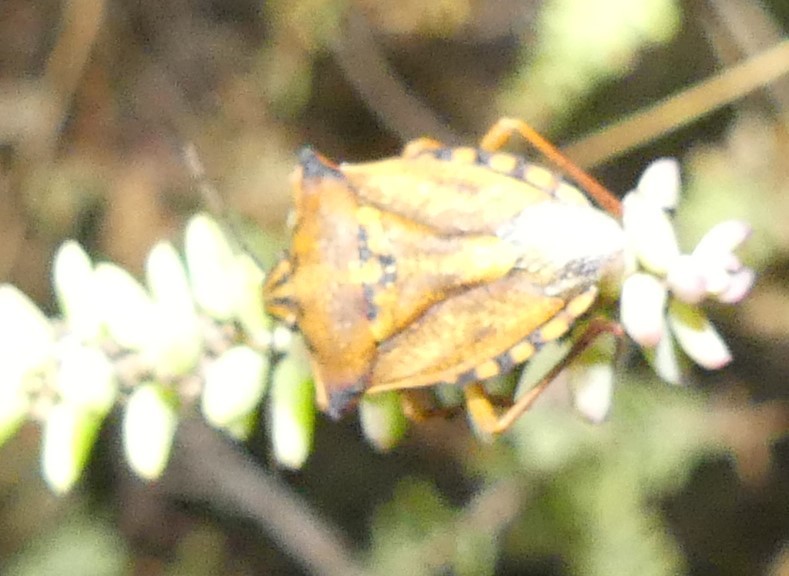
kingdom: Animalia
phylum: Arthropoda
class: Insecta
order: Hemiptera
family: Pentatomidae
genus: Carpocoris
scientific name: Carpocoris mediterraneus
